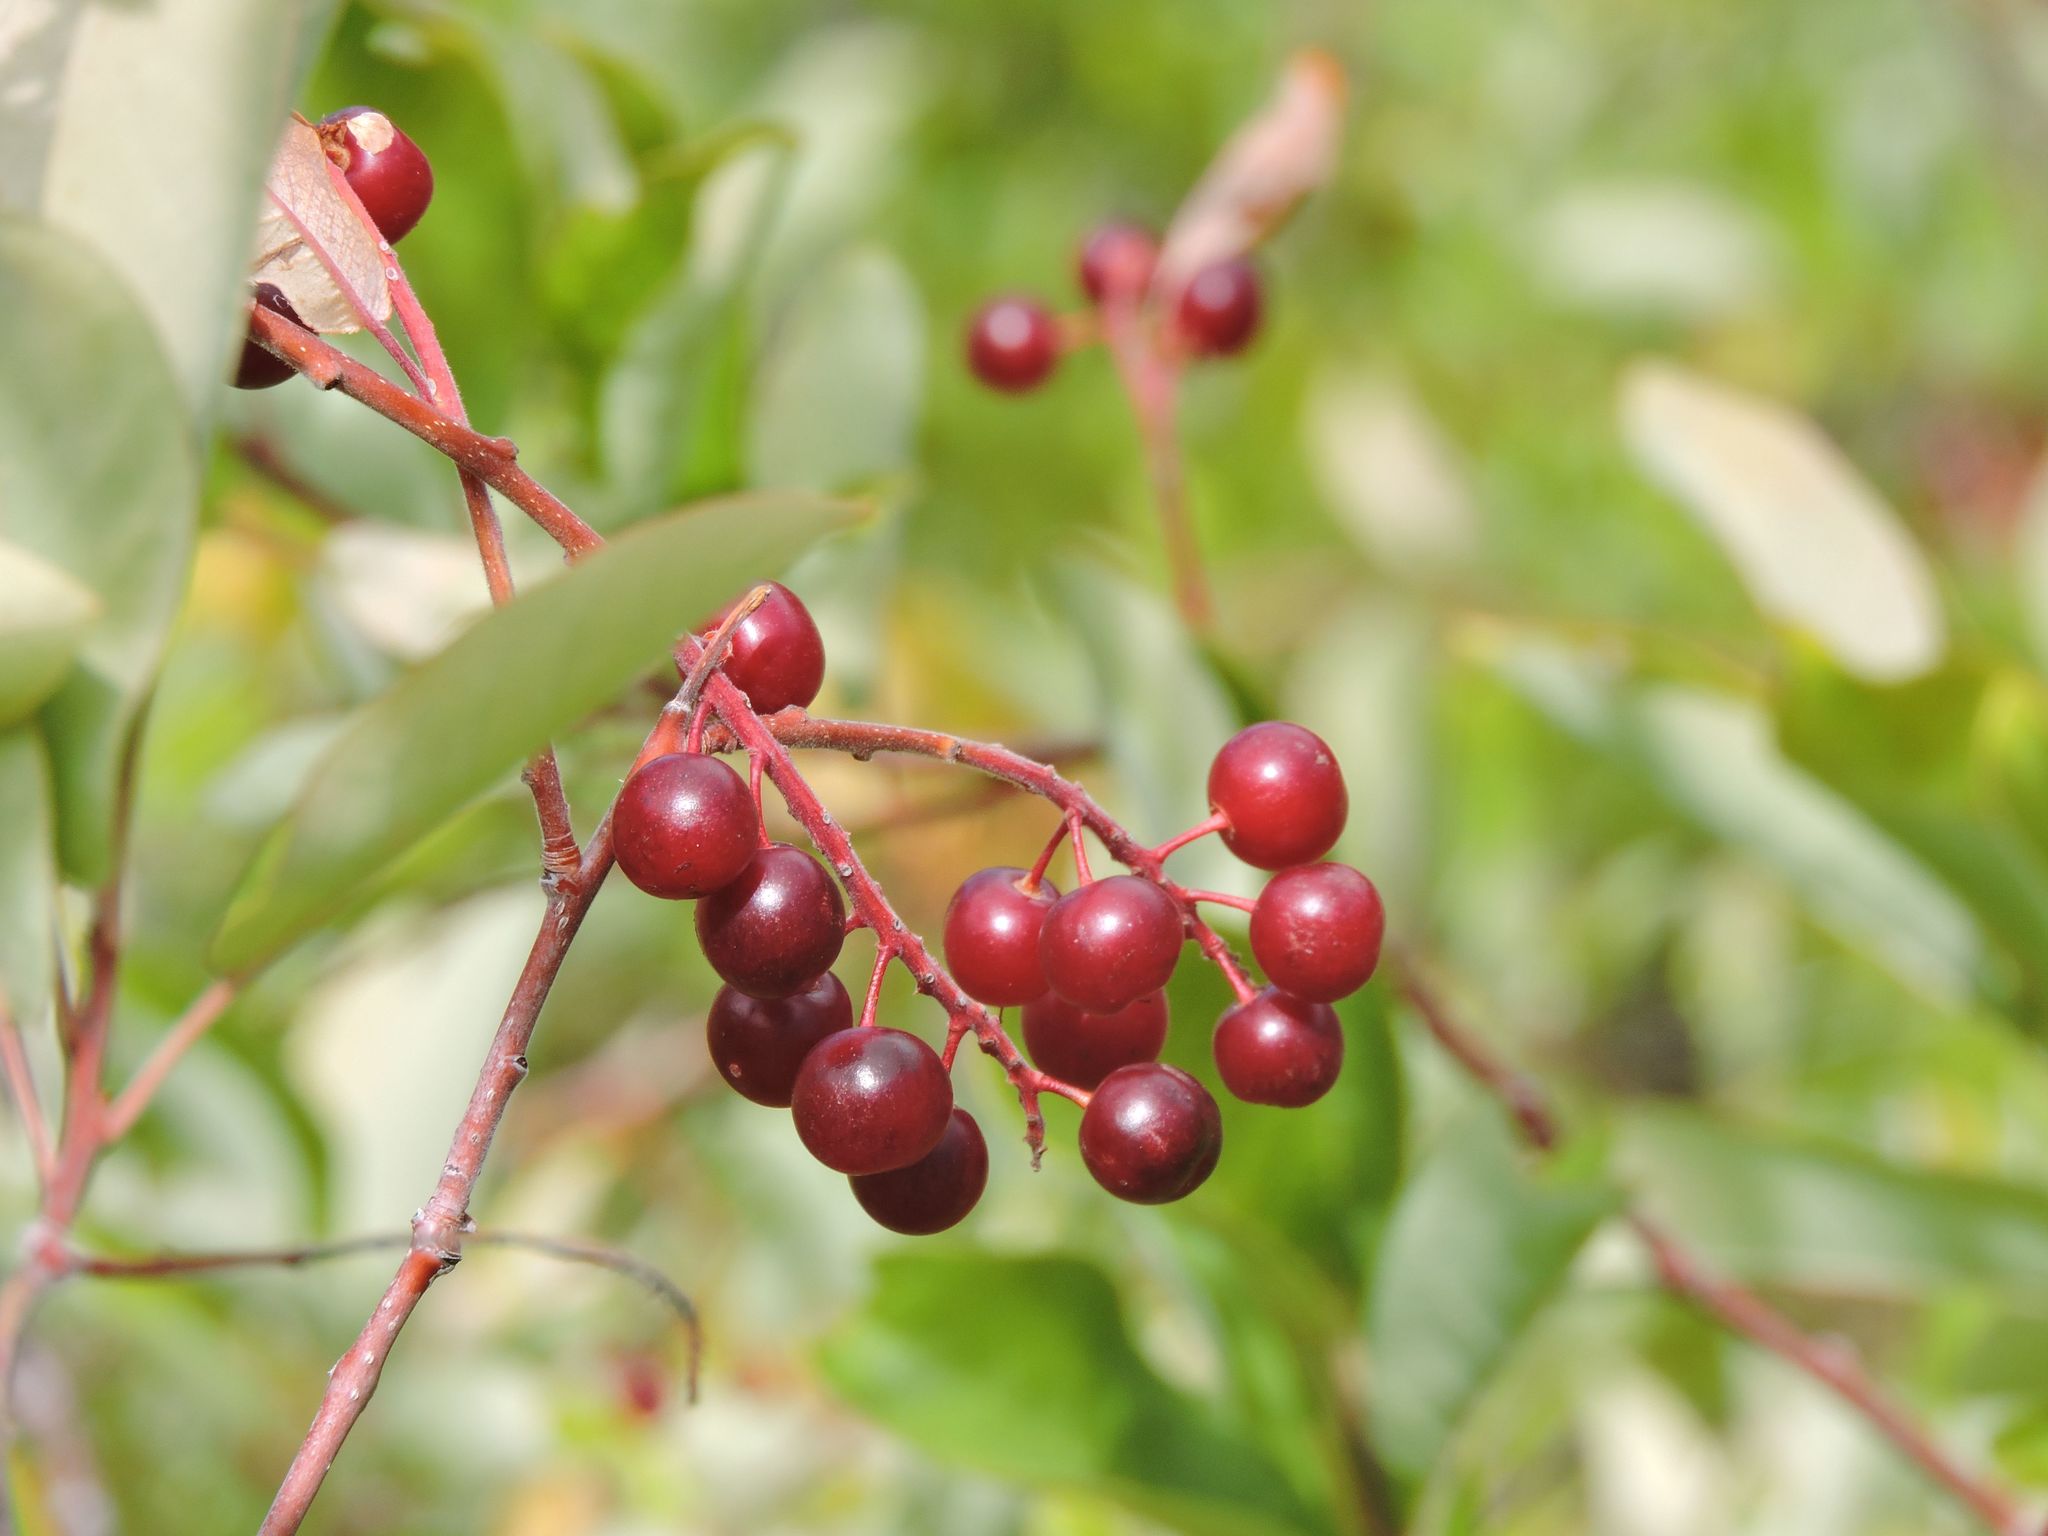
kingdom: Plantae
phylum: Tracheophyta
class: Magnoliopsida
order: Rosales
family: Rosaceae
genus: Prunus
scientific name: Prunus virginiana
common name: Chokecherry
